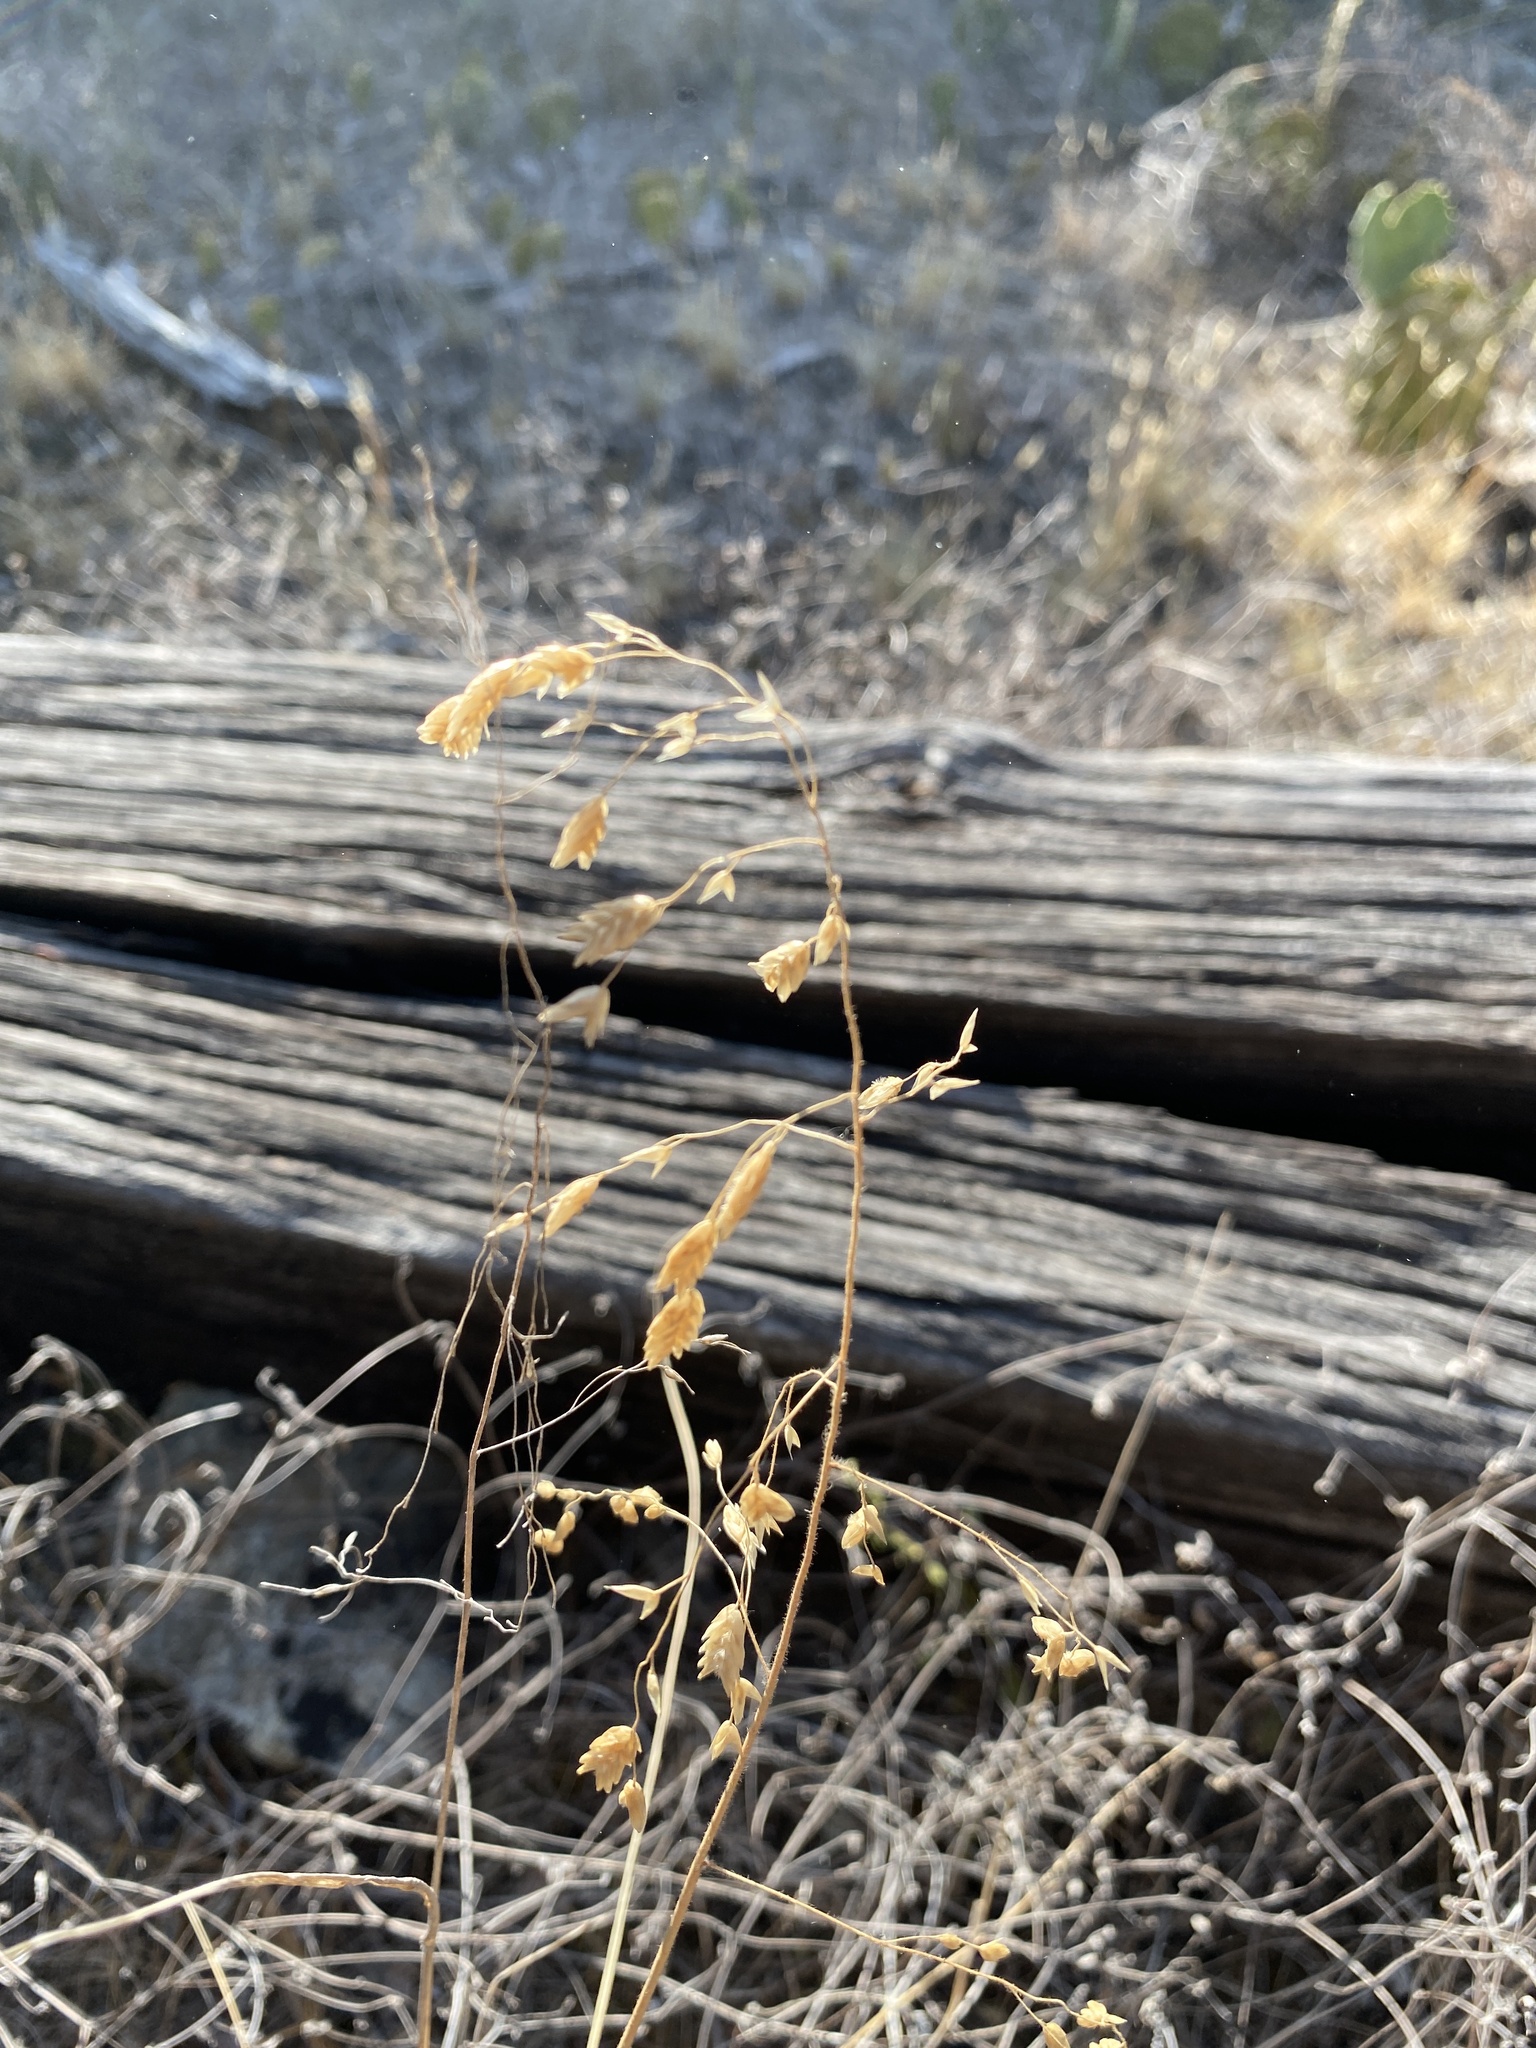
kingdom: Plantae
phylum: Tracheophyta
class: Liliopsida
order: Poales
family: Poaceae
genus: Tridens
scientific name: Tridens texanus
